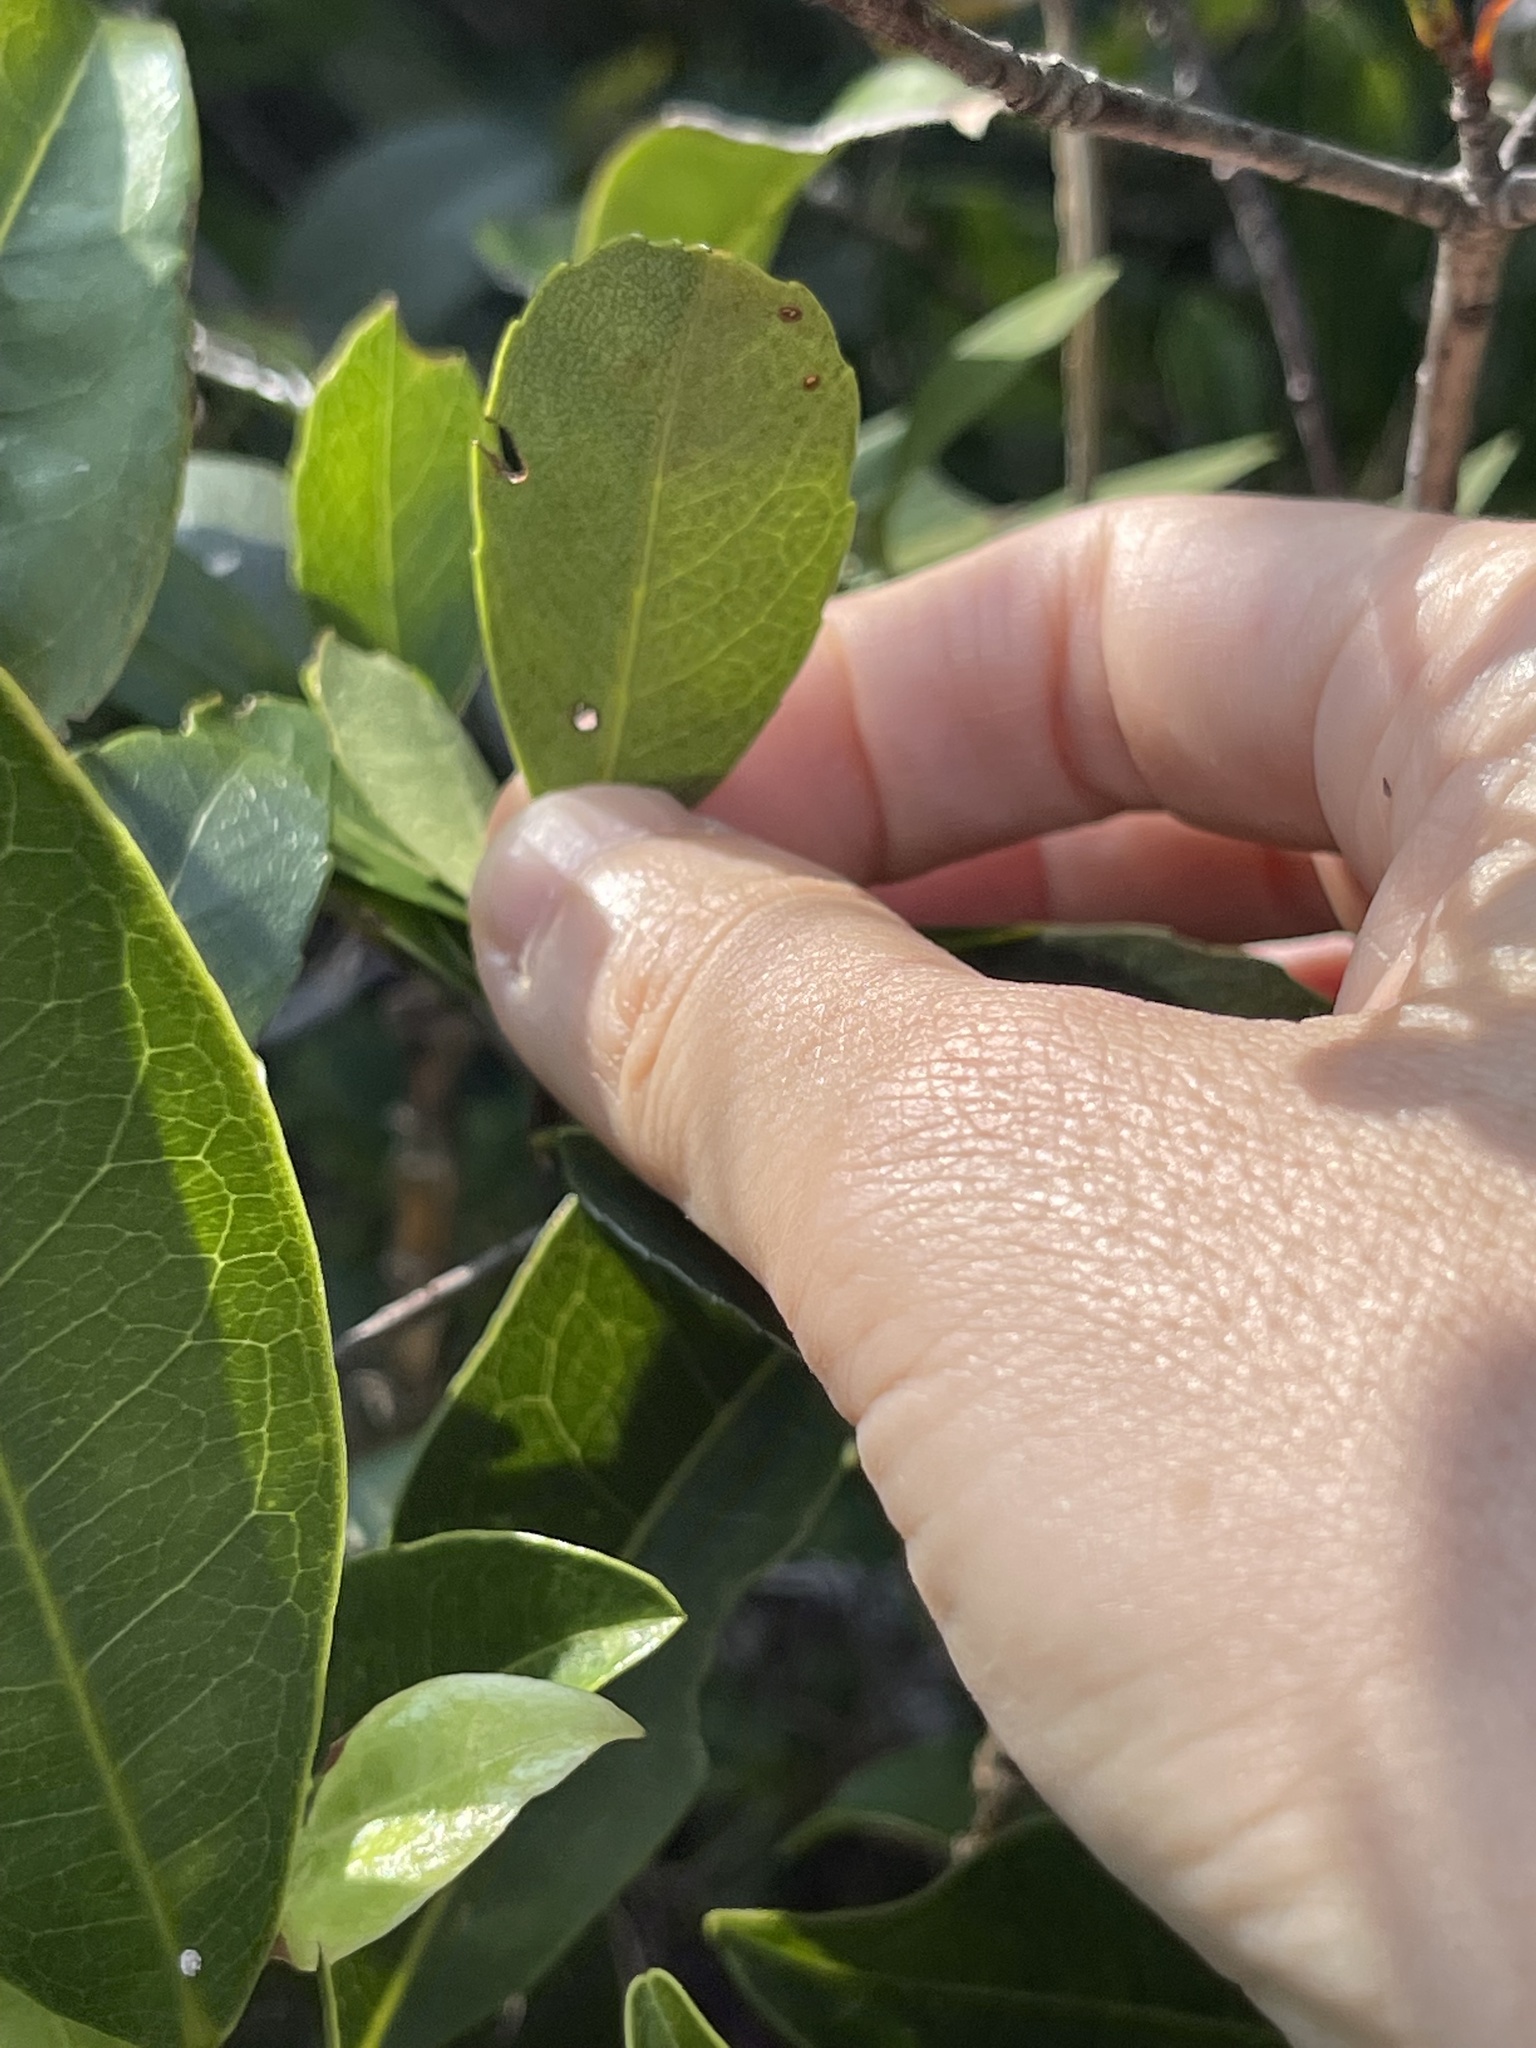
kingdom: Plantae
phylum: Tracheophyta
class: Magnoliopsida
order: Rosales
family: Rosaceae
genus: Rhaphiolepis
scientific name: Rhaphiolepis indica
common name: India-hawthorn
